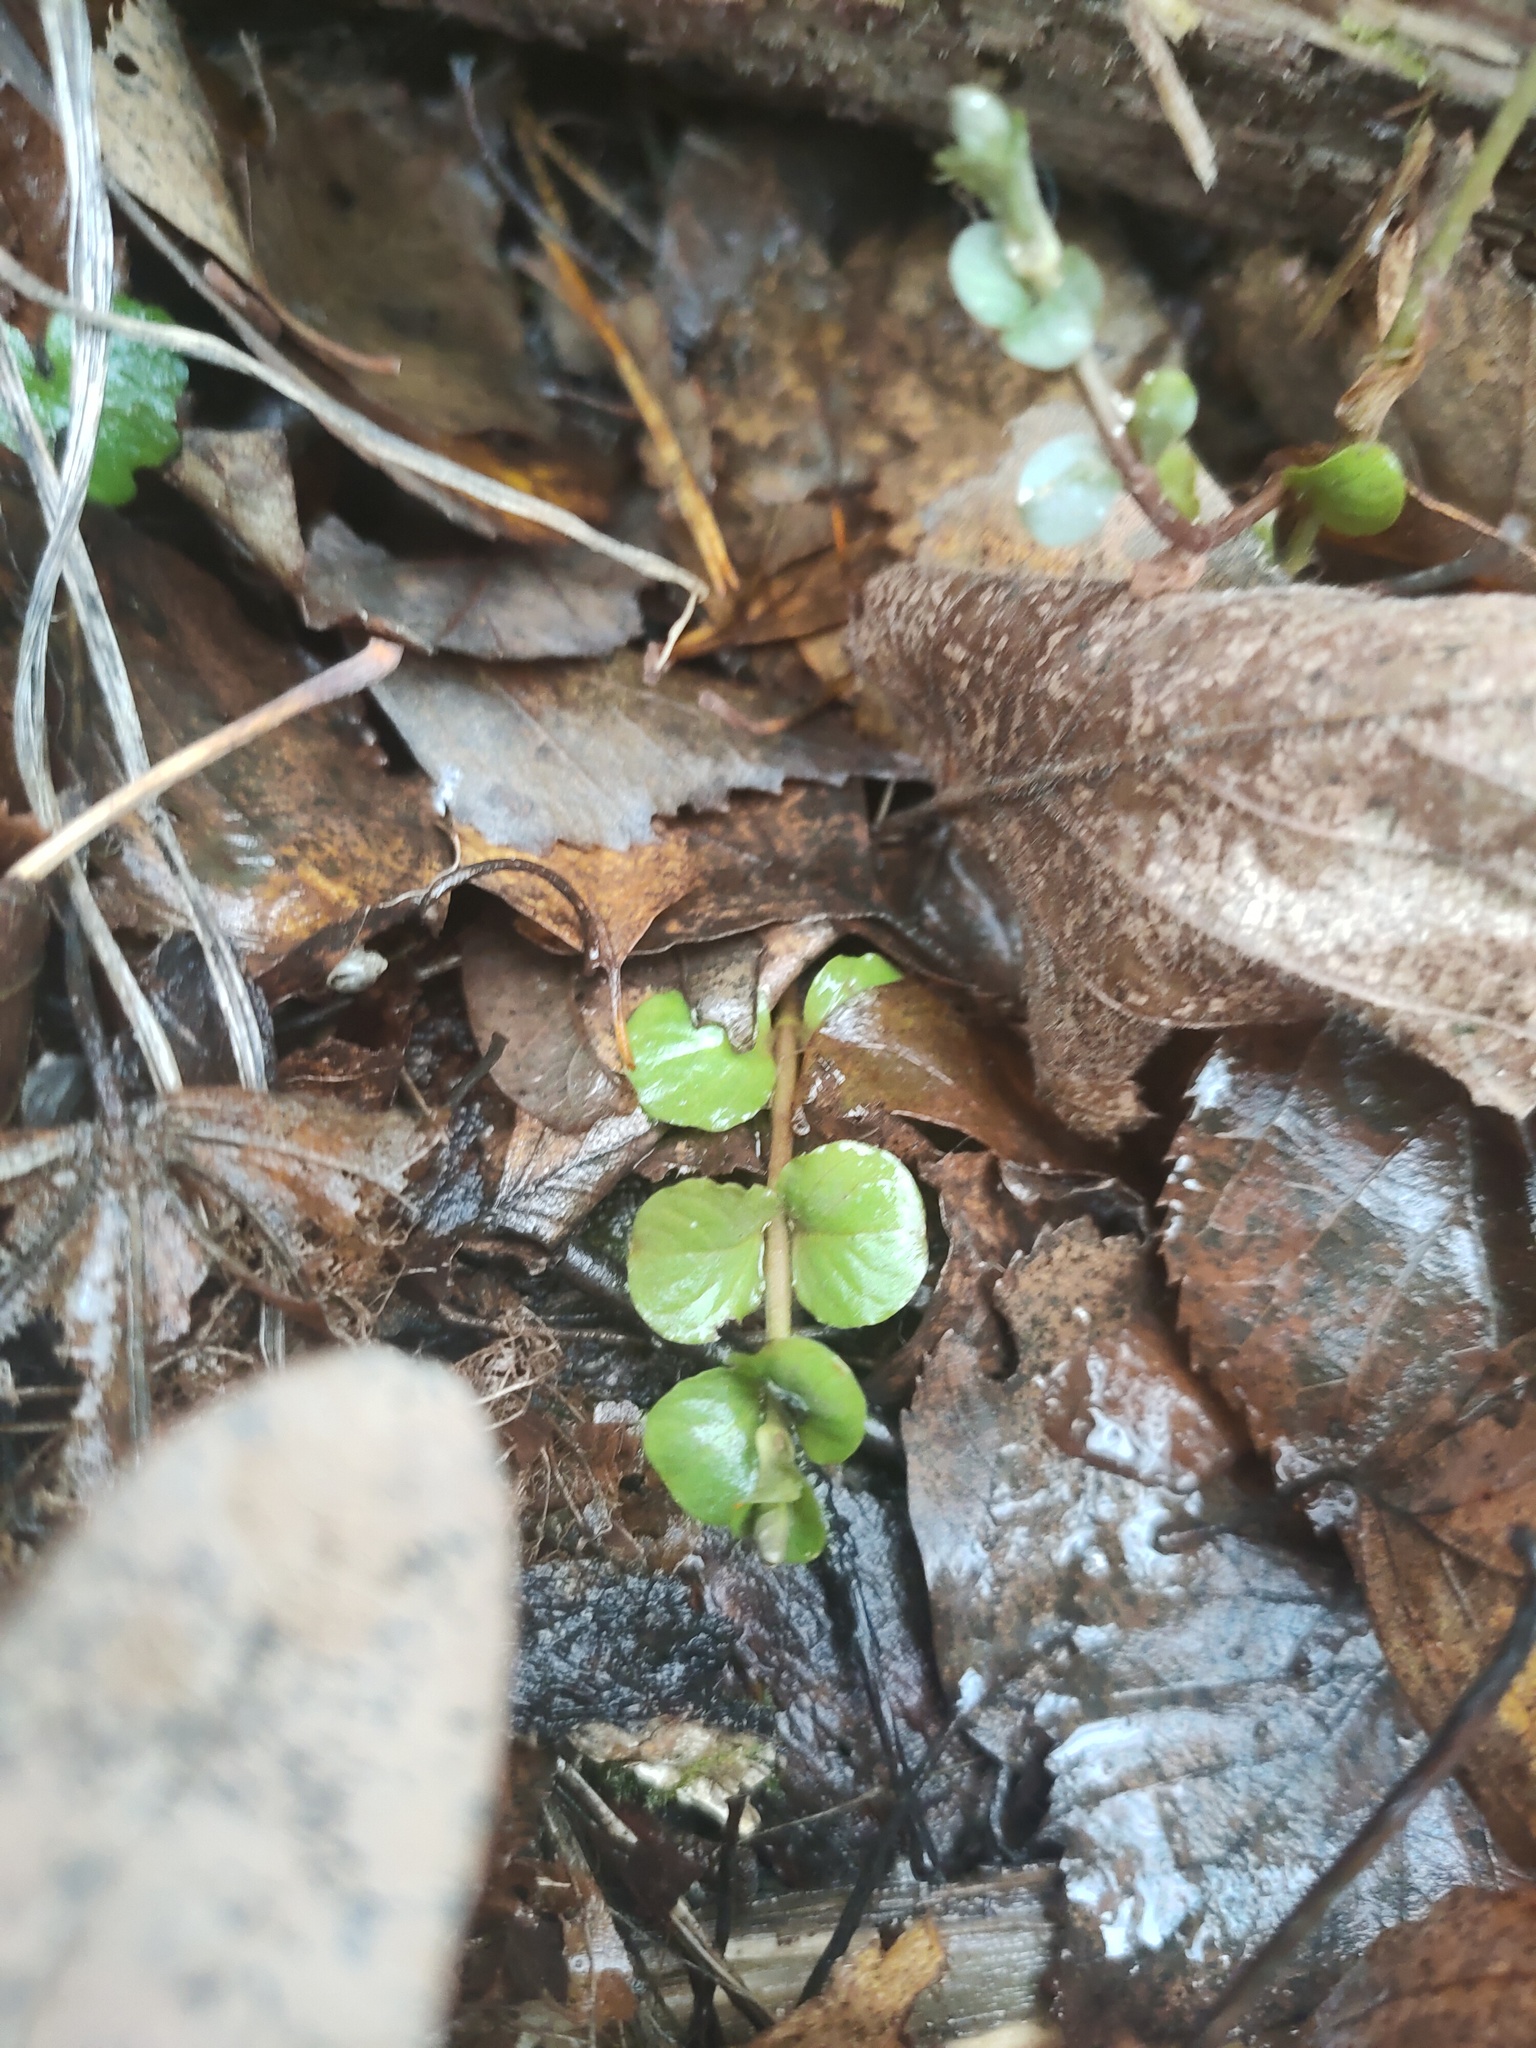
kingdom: Plantae
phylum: Tracheophyta
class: Magnoliopsida
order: Ericales
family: Primulaceae
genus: Lysimachia
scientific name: Lysimachia nummularia
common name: Moneywort
